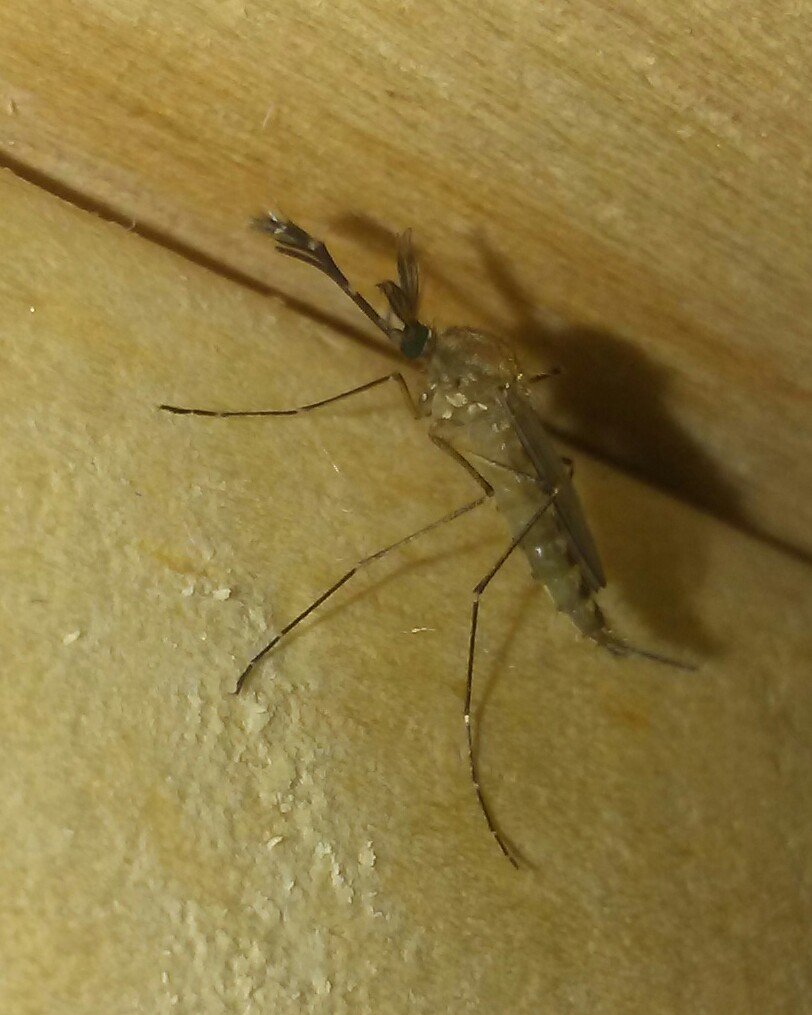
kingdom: Animalia
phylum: Arthropoda
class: Insecta
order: Diptera
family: Culicidae
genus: Aedes
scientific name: Aedes vexans
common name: Inland floodwater mosquito
